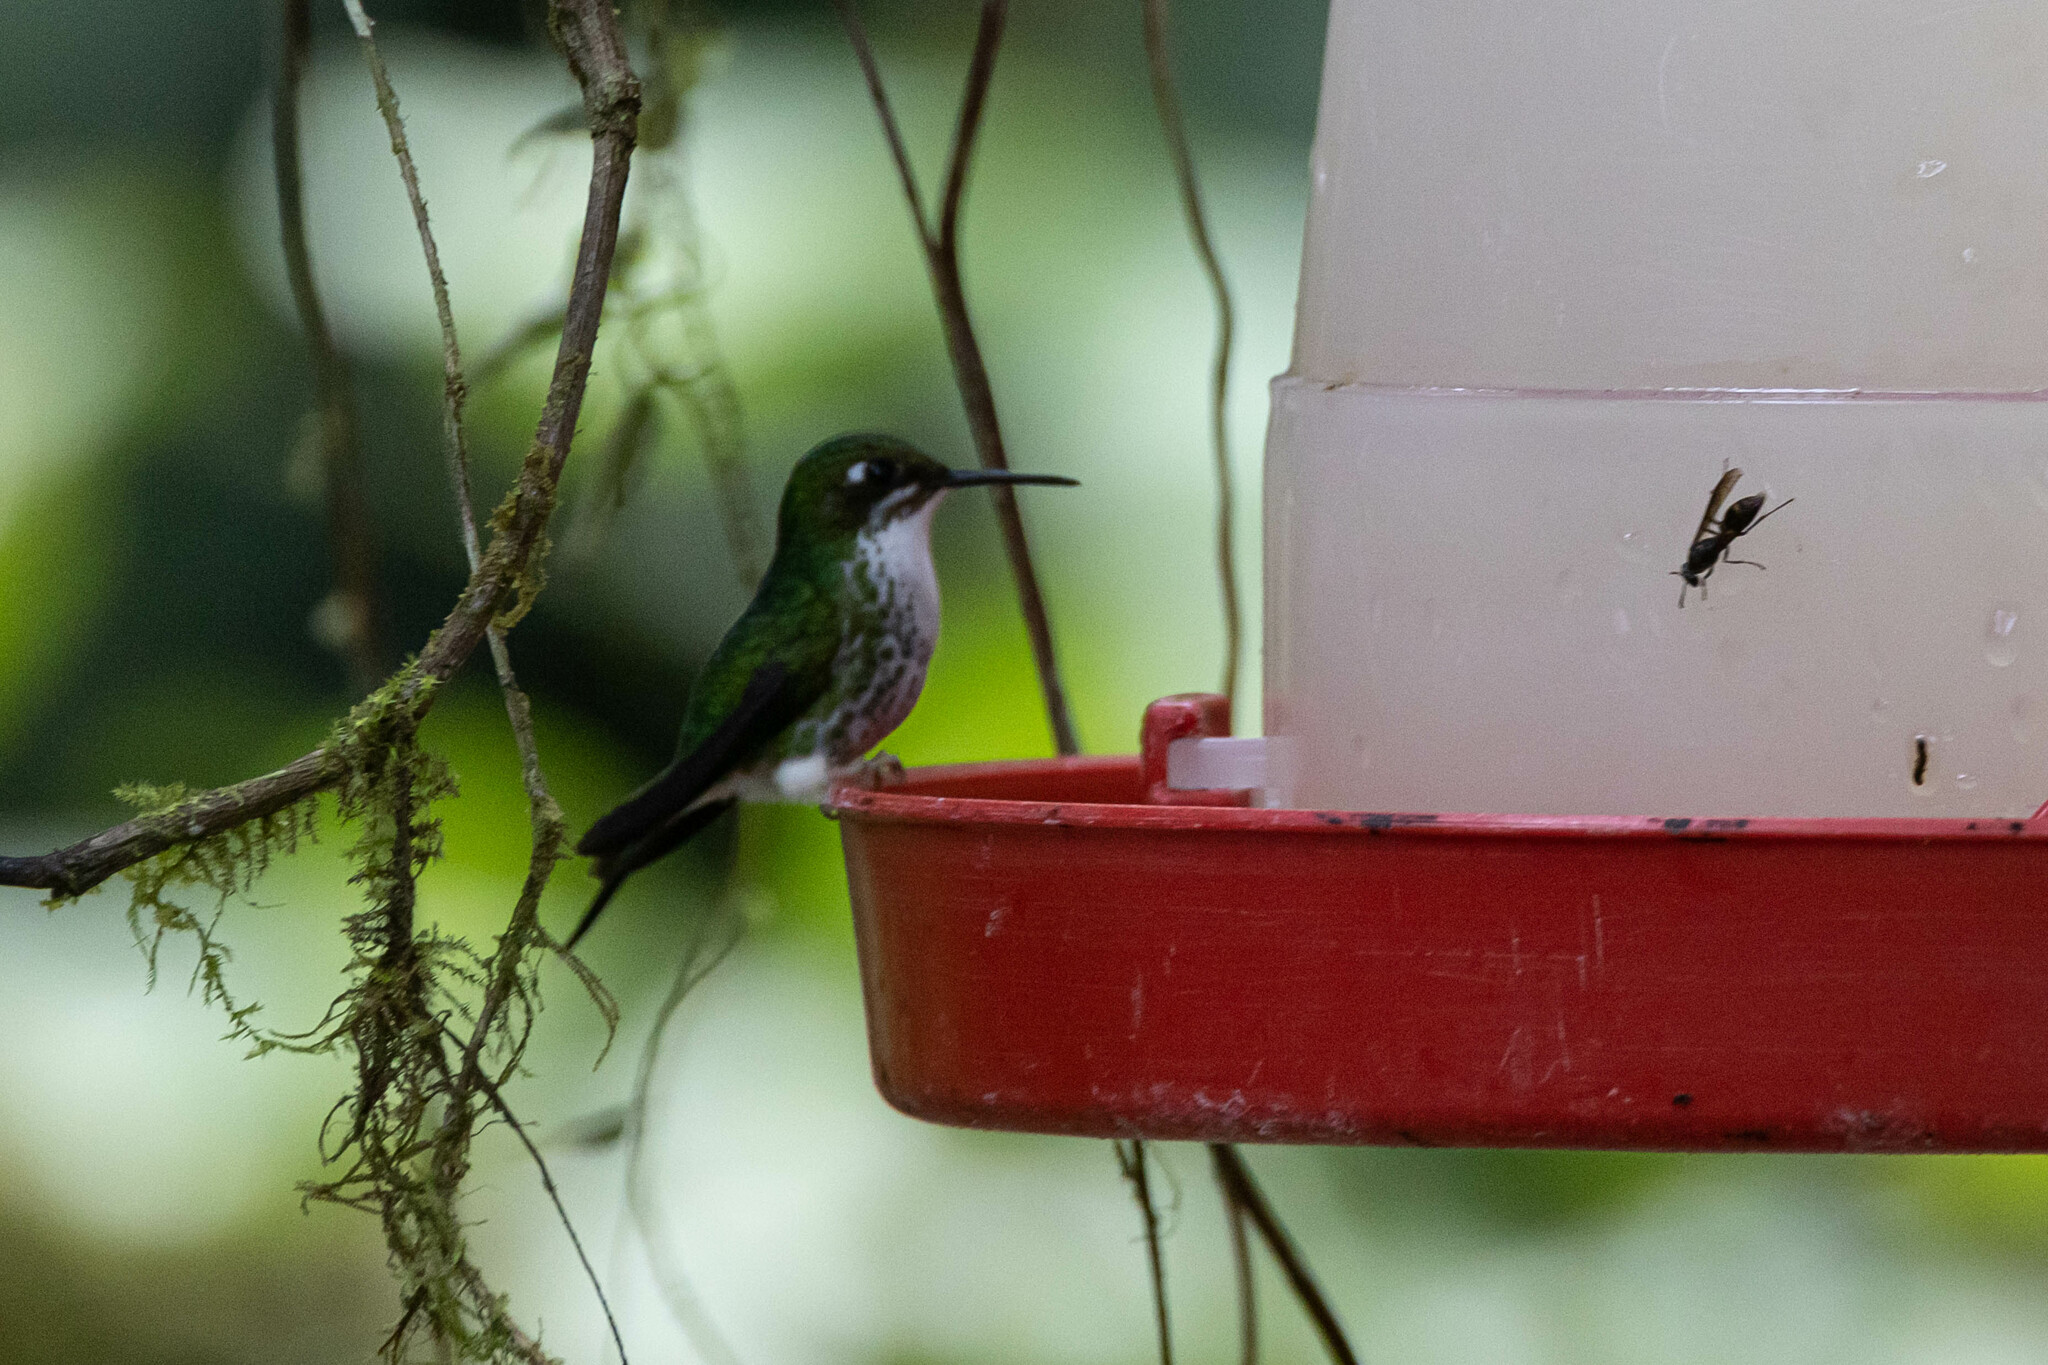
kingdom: Animalia
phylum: Chordata
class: Aves
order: Apodiformes
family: Trochilidae
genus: Ocreatus
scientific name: Ocreatus underwoodii
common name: Booted racket-tail
